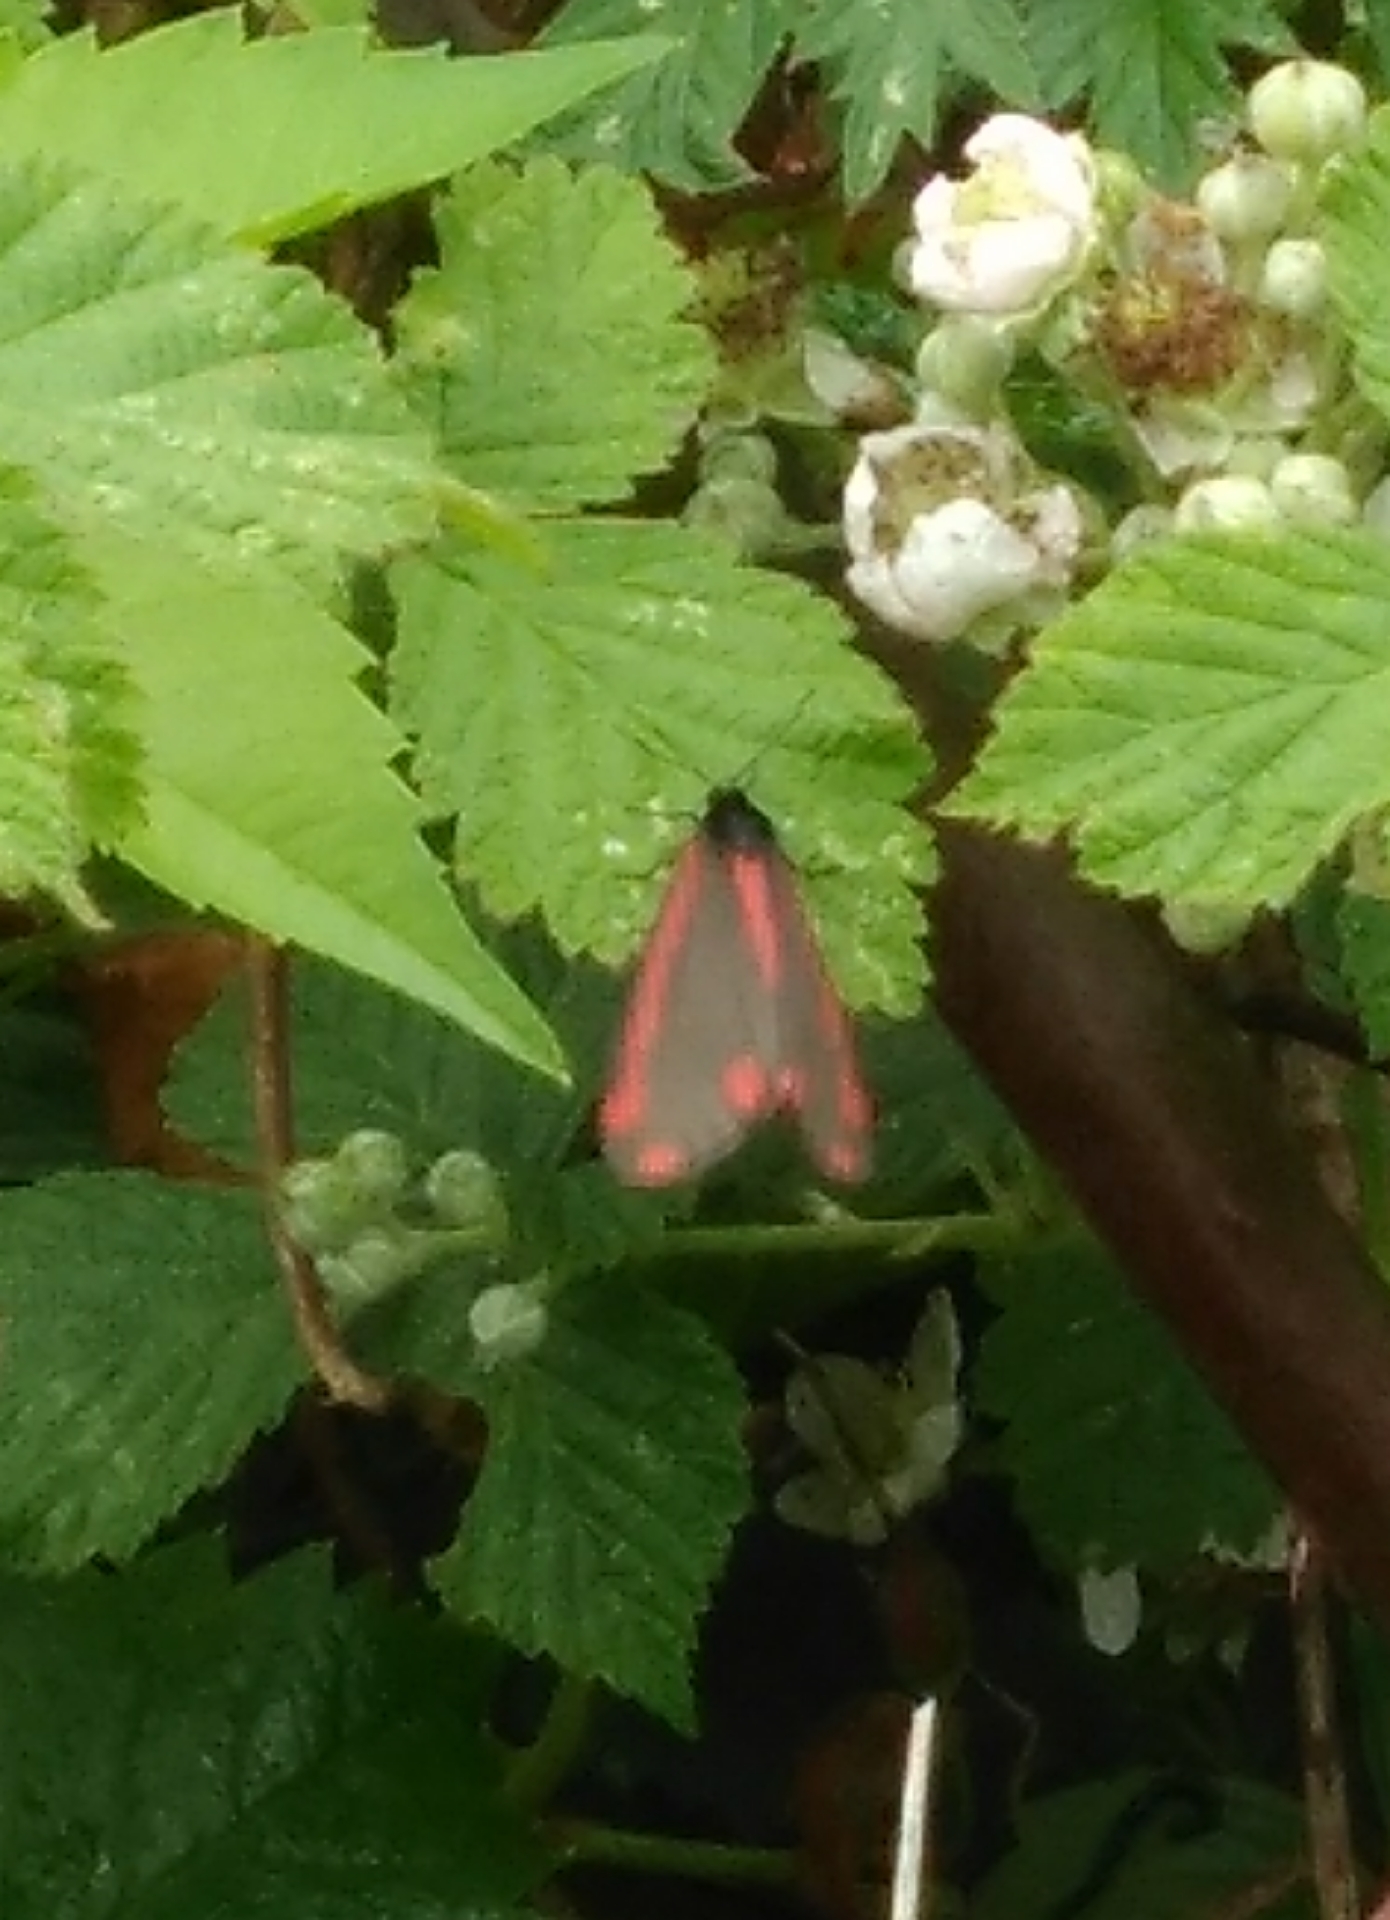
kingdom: Animalia
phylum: Arthropoda
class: Insecta
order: Lepidoptera
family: Erebidae
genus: Tyria
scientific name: Tyria jacobaeae
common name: Cinnabar
